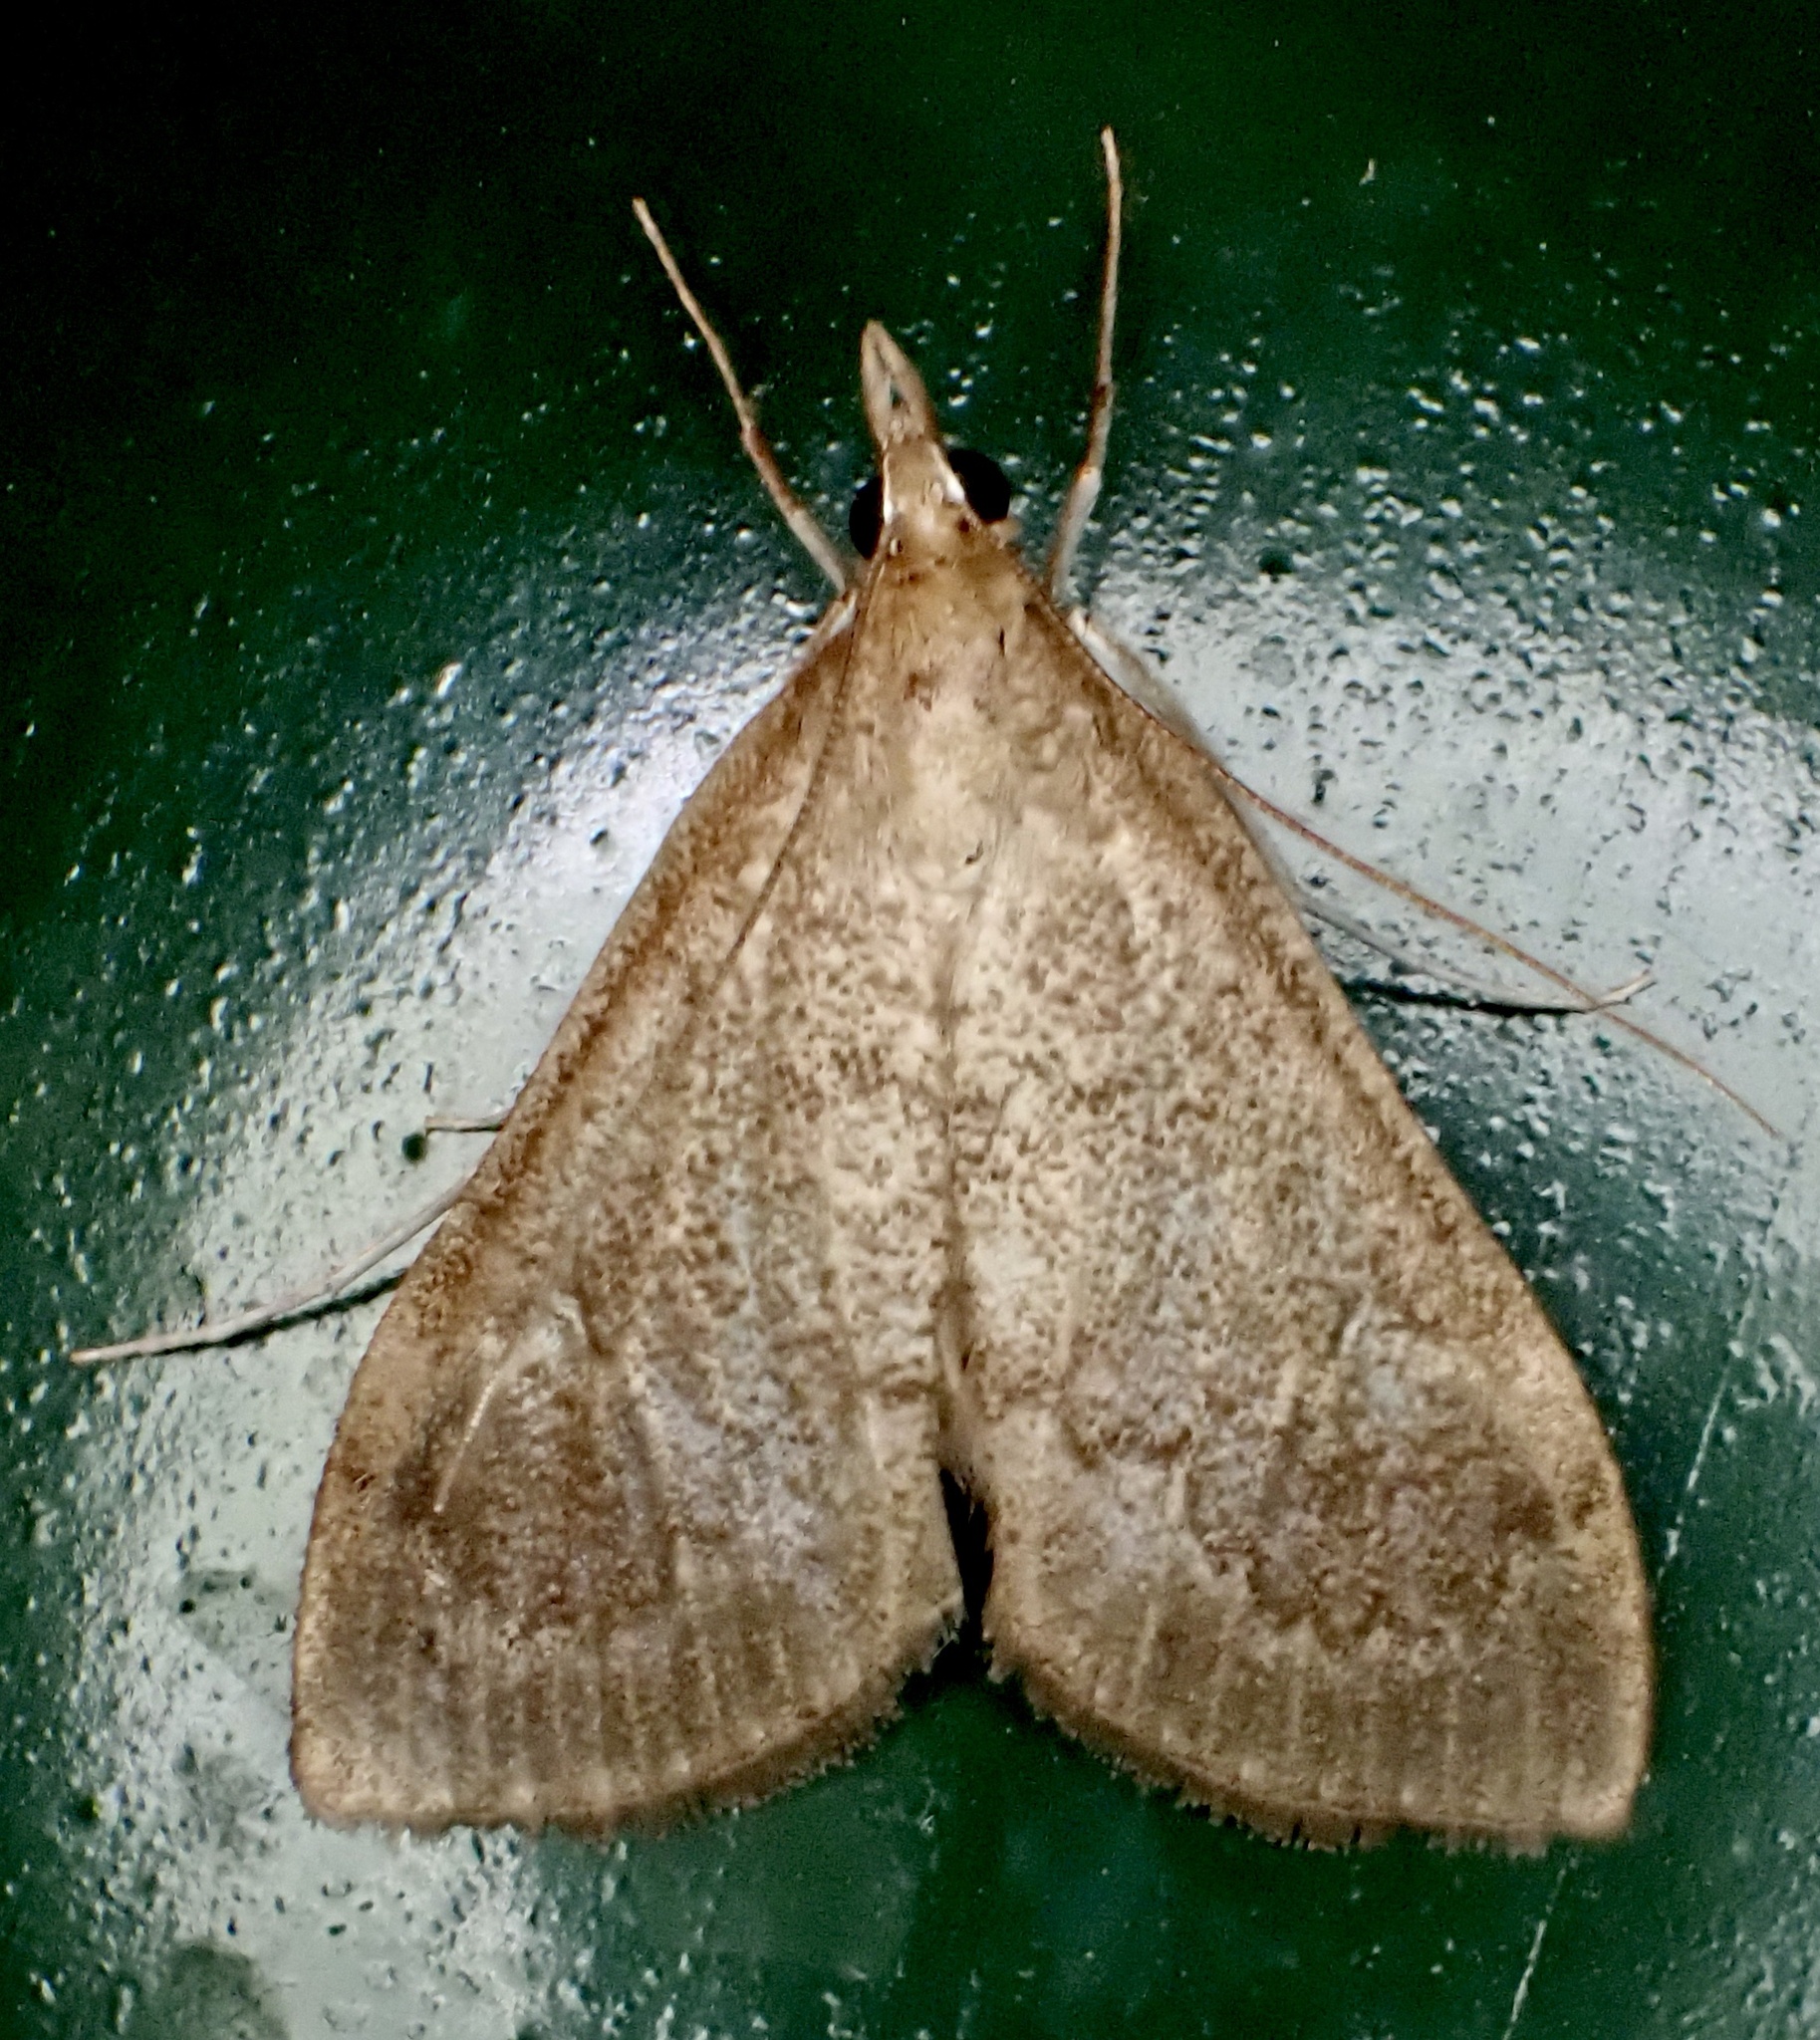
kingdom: Animalia
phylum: Arthropoda
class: Insecta
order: Lepidoptera
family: Crambidae
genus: Saucrobotys
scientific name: Saucrobotys futilalis
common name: Dogbane saucrobotys moth
